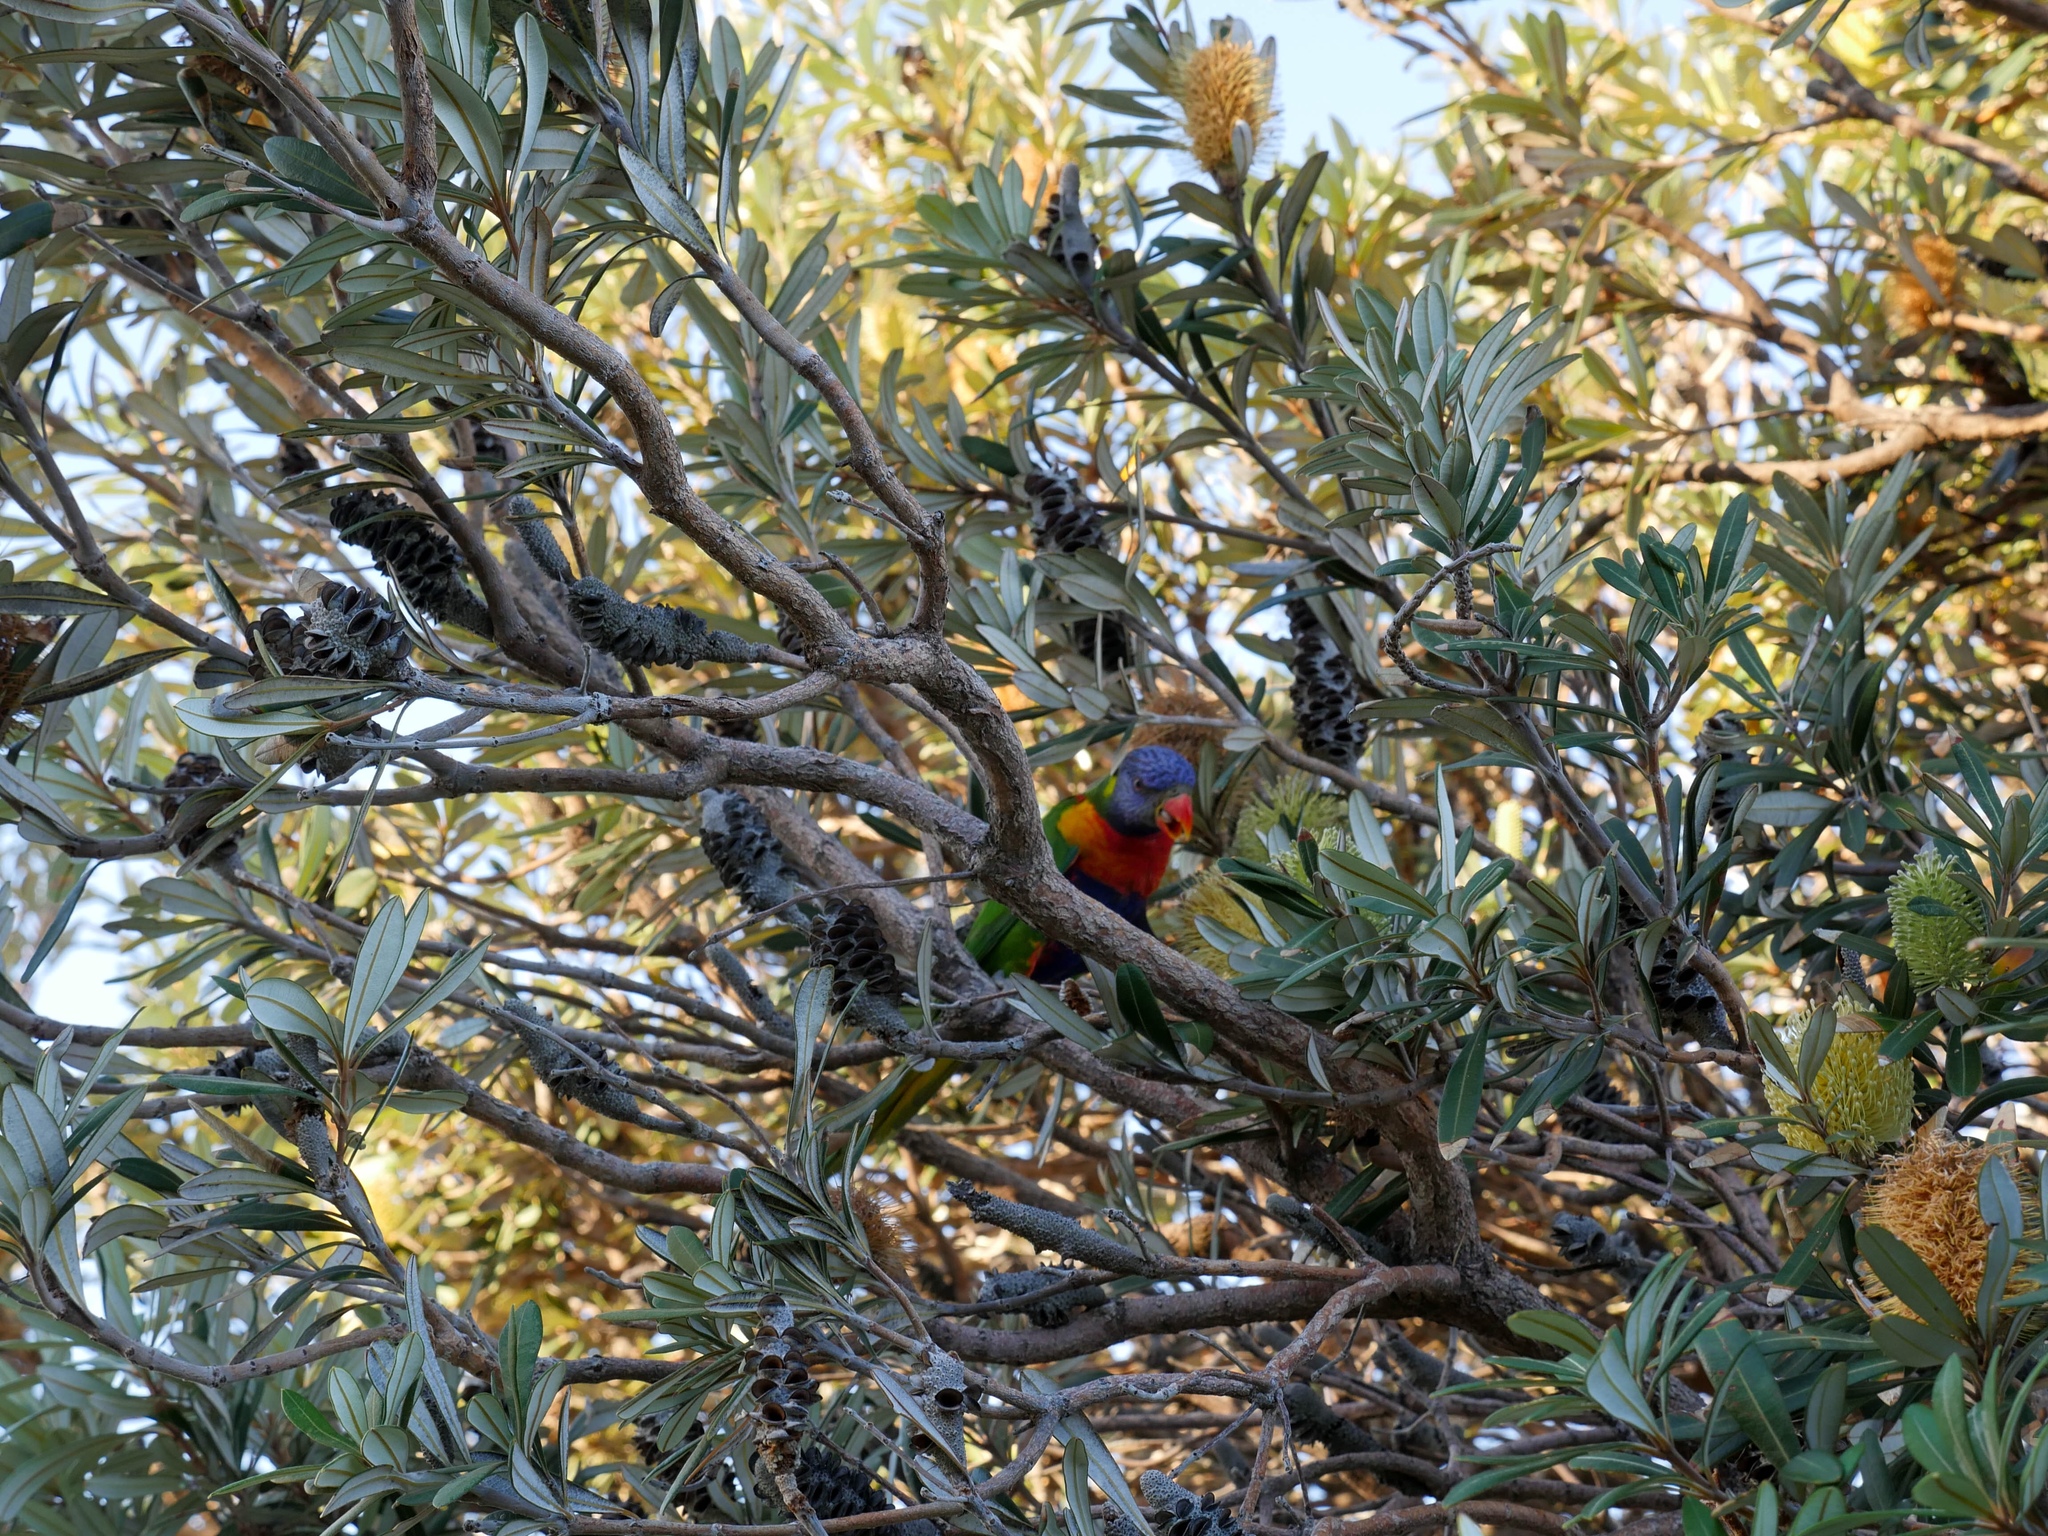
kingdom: Animalia
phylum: Chordata
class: Aves
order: Psittaciformes
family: Psittacidae
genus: Trichoglossus
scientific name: Trichoglossus haematodus
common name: Coconut lorikeet
